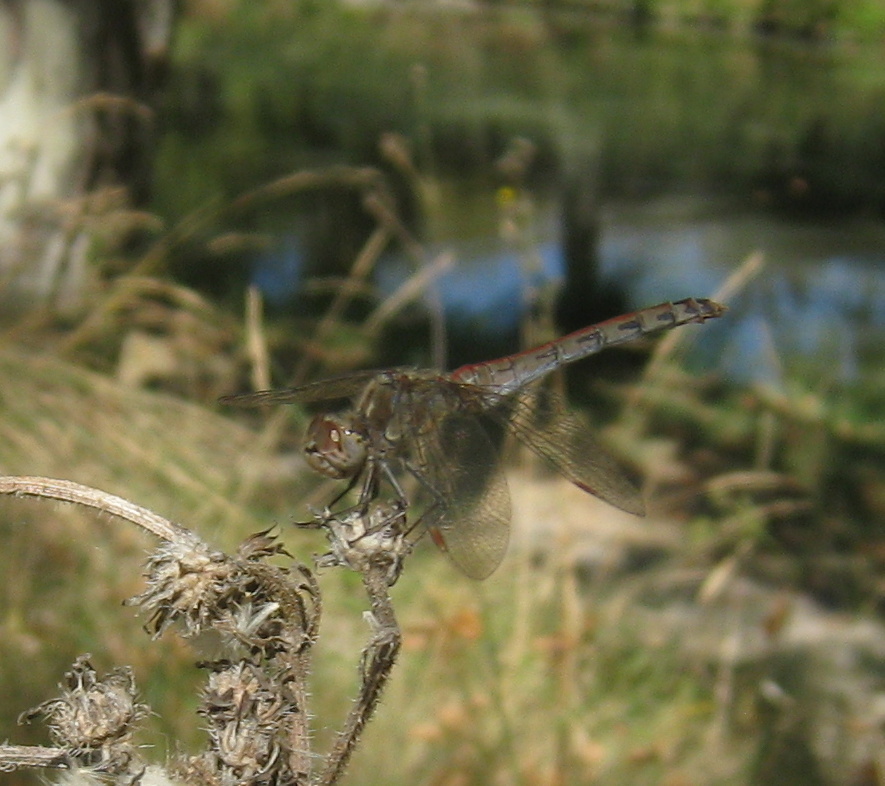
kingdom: Animalia
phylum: Arthropoda
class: Insecta
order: Odonata
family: Libellulidae
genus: Sympetrum
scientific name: Sympetrum striolatum
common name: Common darter
